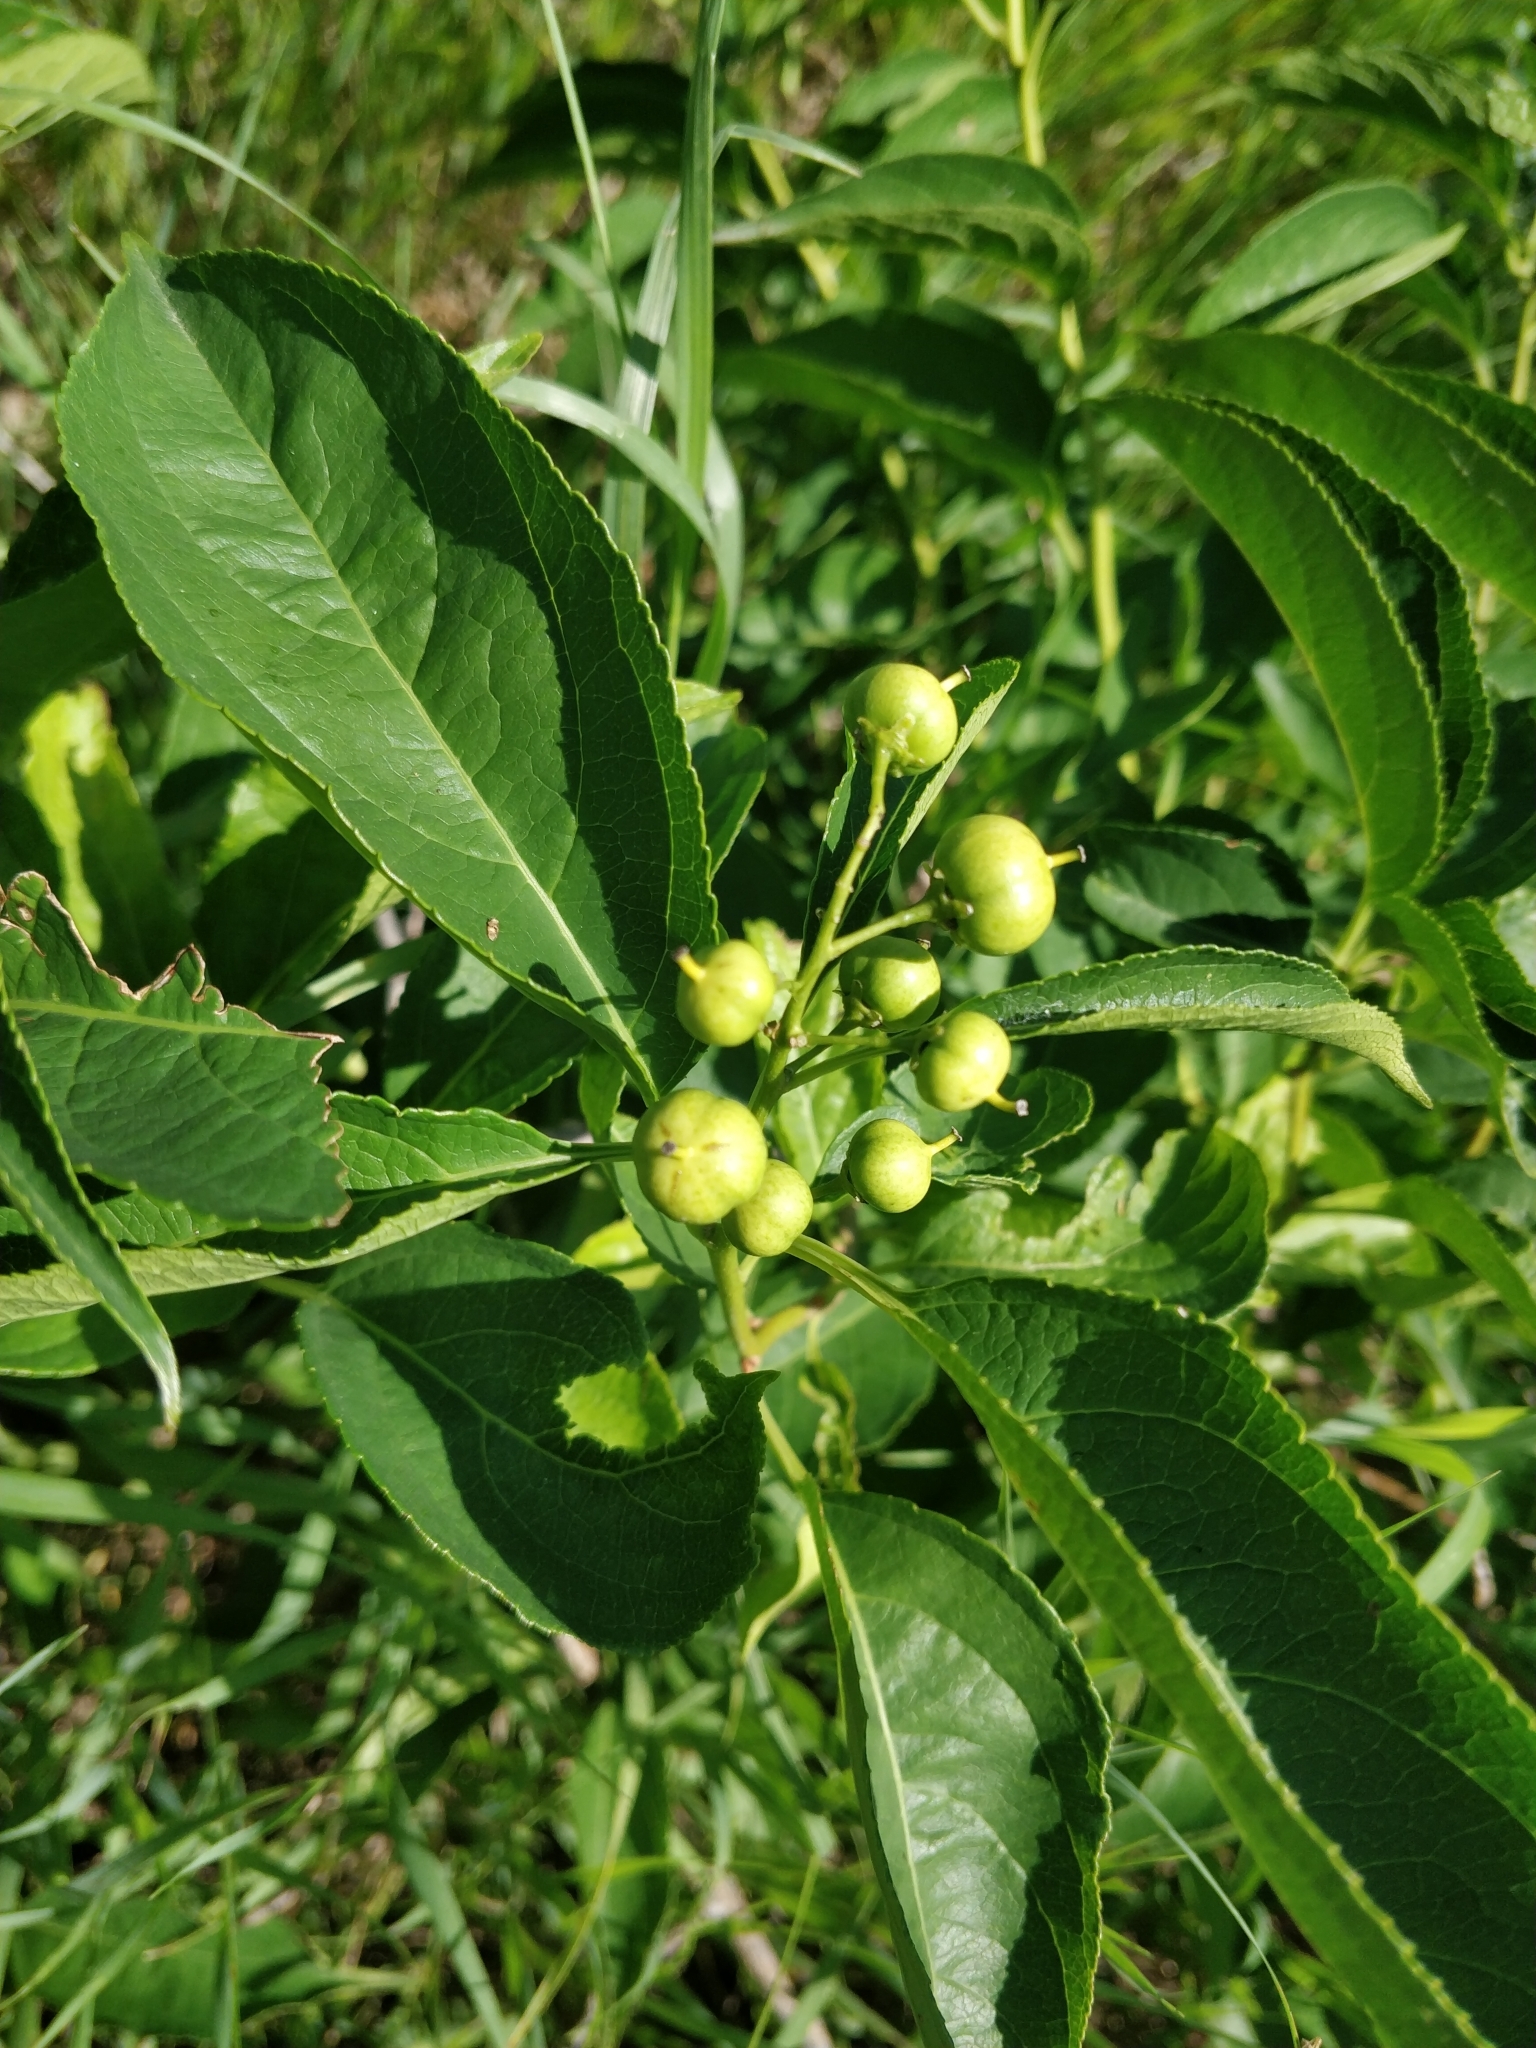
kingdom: Plantae
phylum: Tracheophyta
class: Magnoliopsida
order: Celastrales
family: Celastraceae
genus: Celastrus
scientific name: Celastrus scandens
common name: American bittersweet
